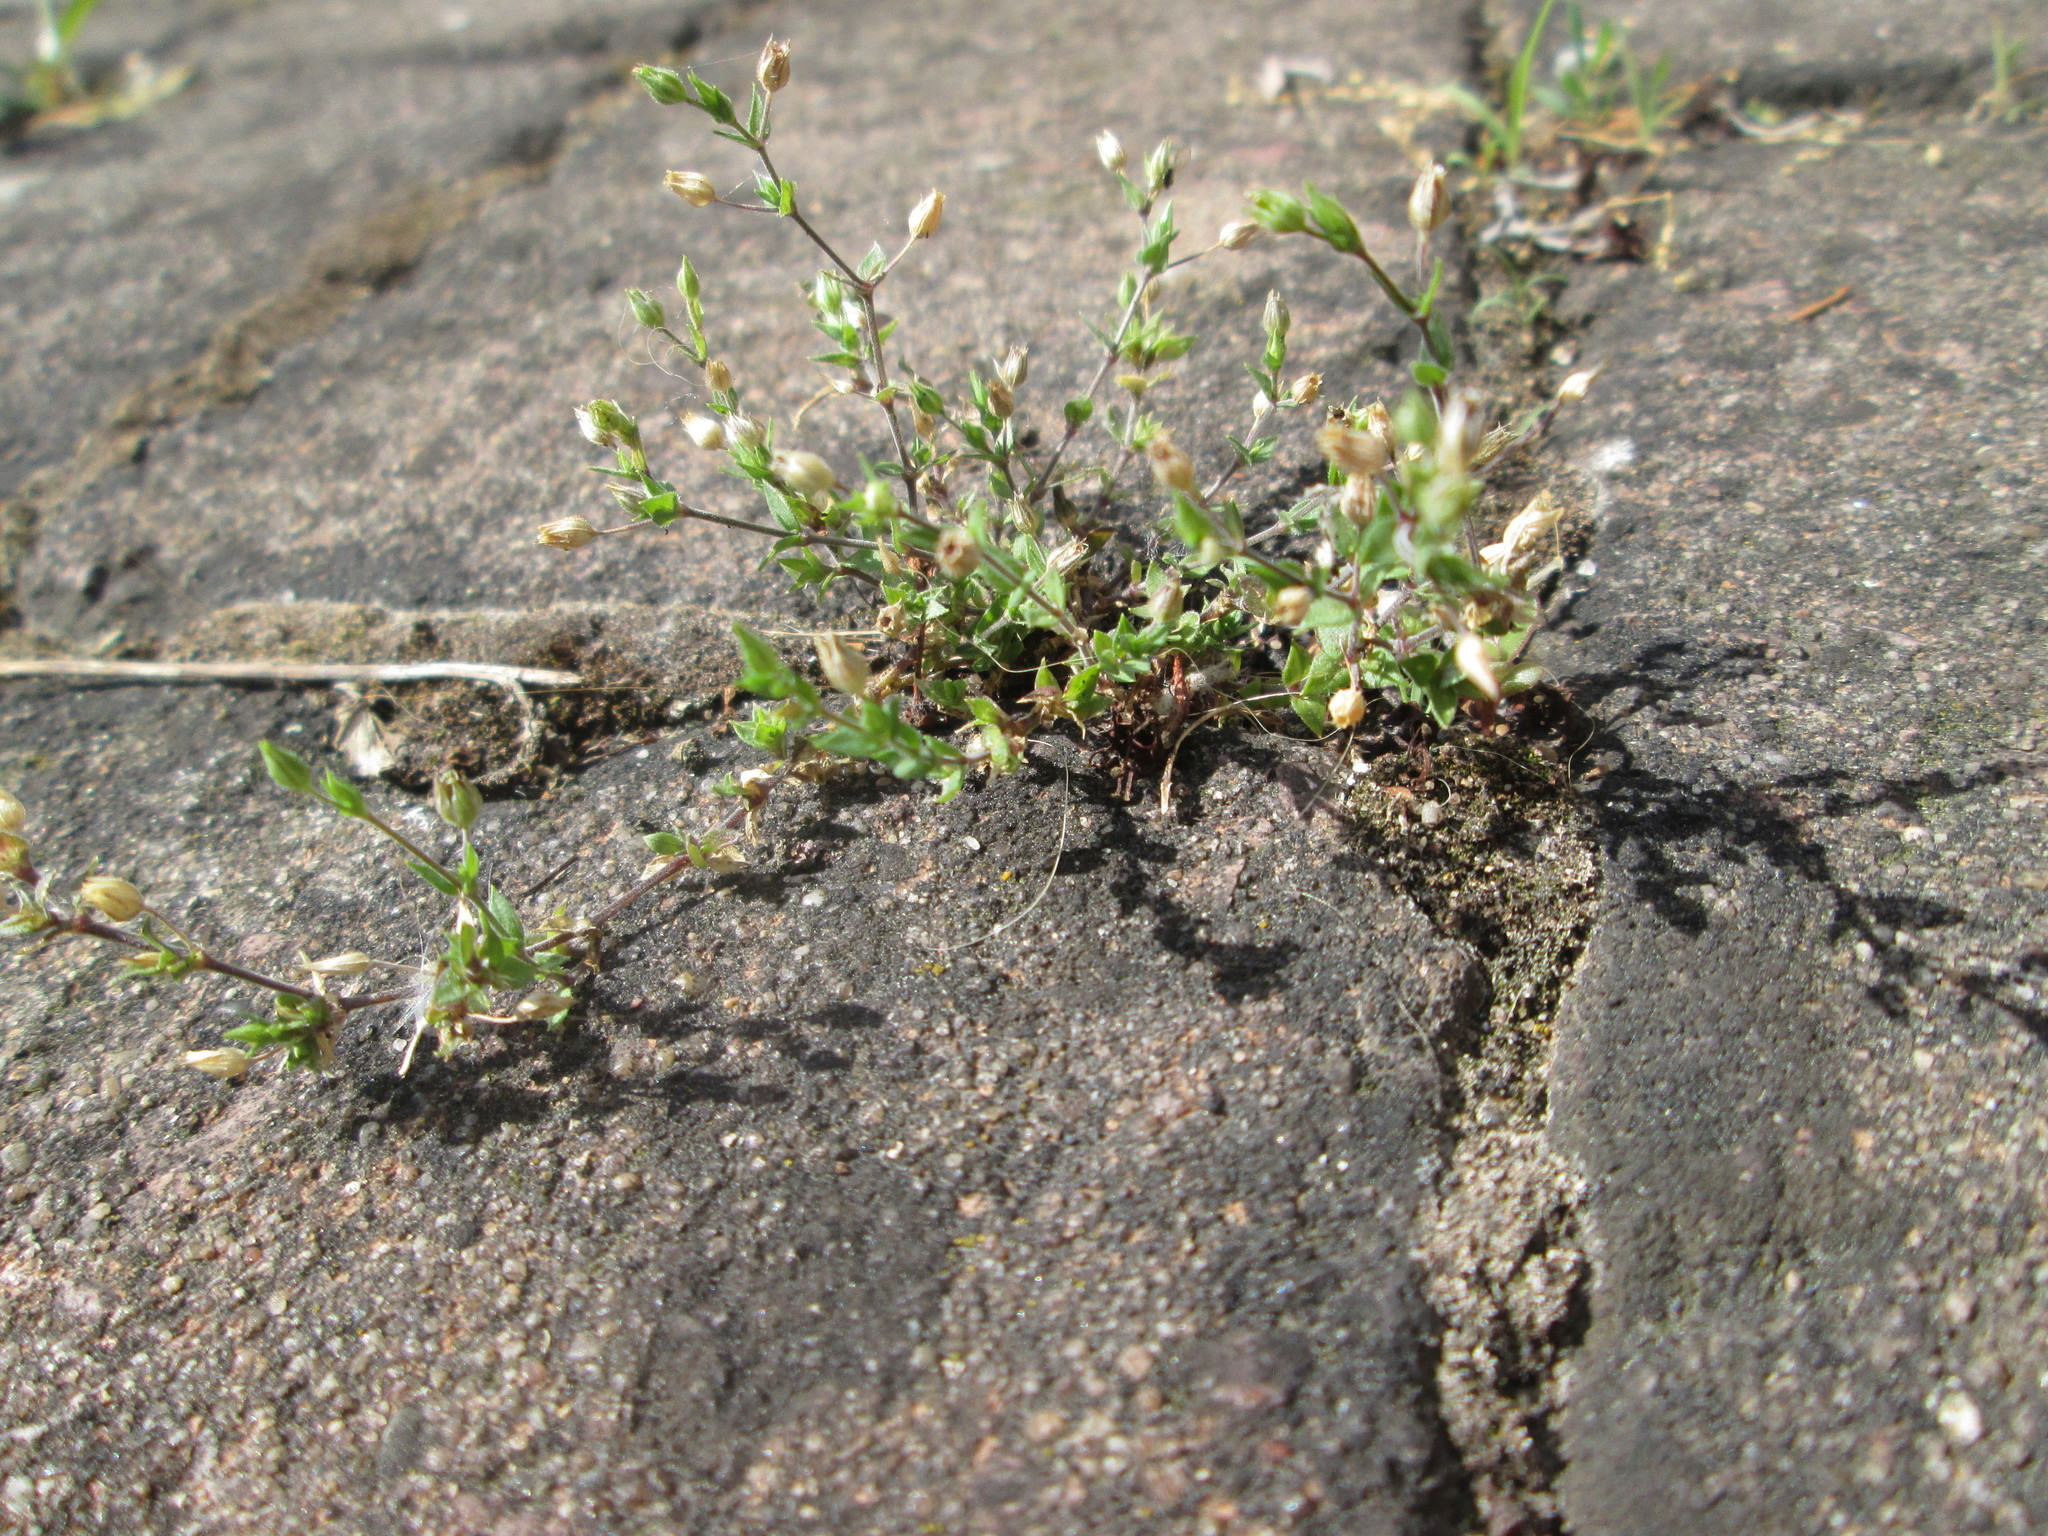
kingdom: Plantae
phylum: Tracheophyta
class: Magnoliopsida
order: Caryophyllales
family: Caryophyllaceae
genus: Arenaria
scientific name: Arenaria serpyllifolia
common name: Thyme-leaved sandwort
